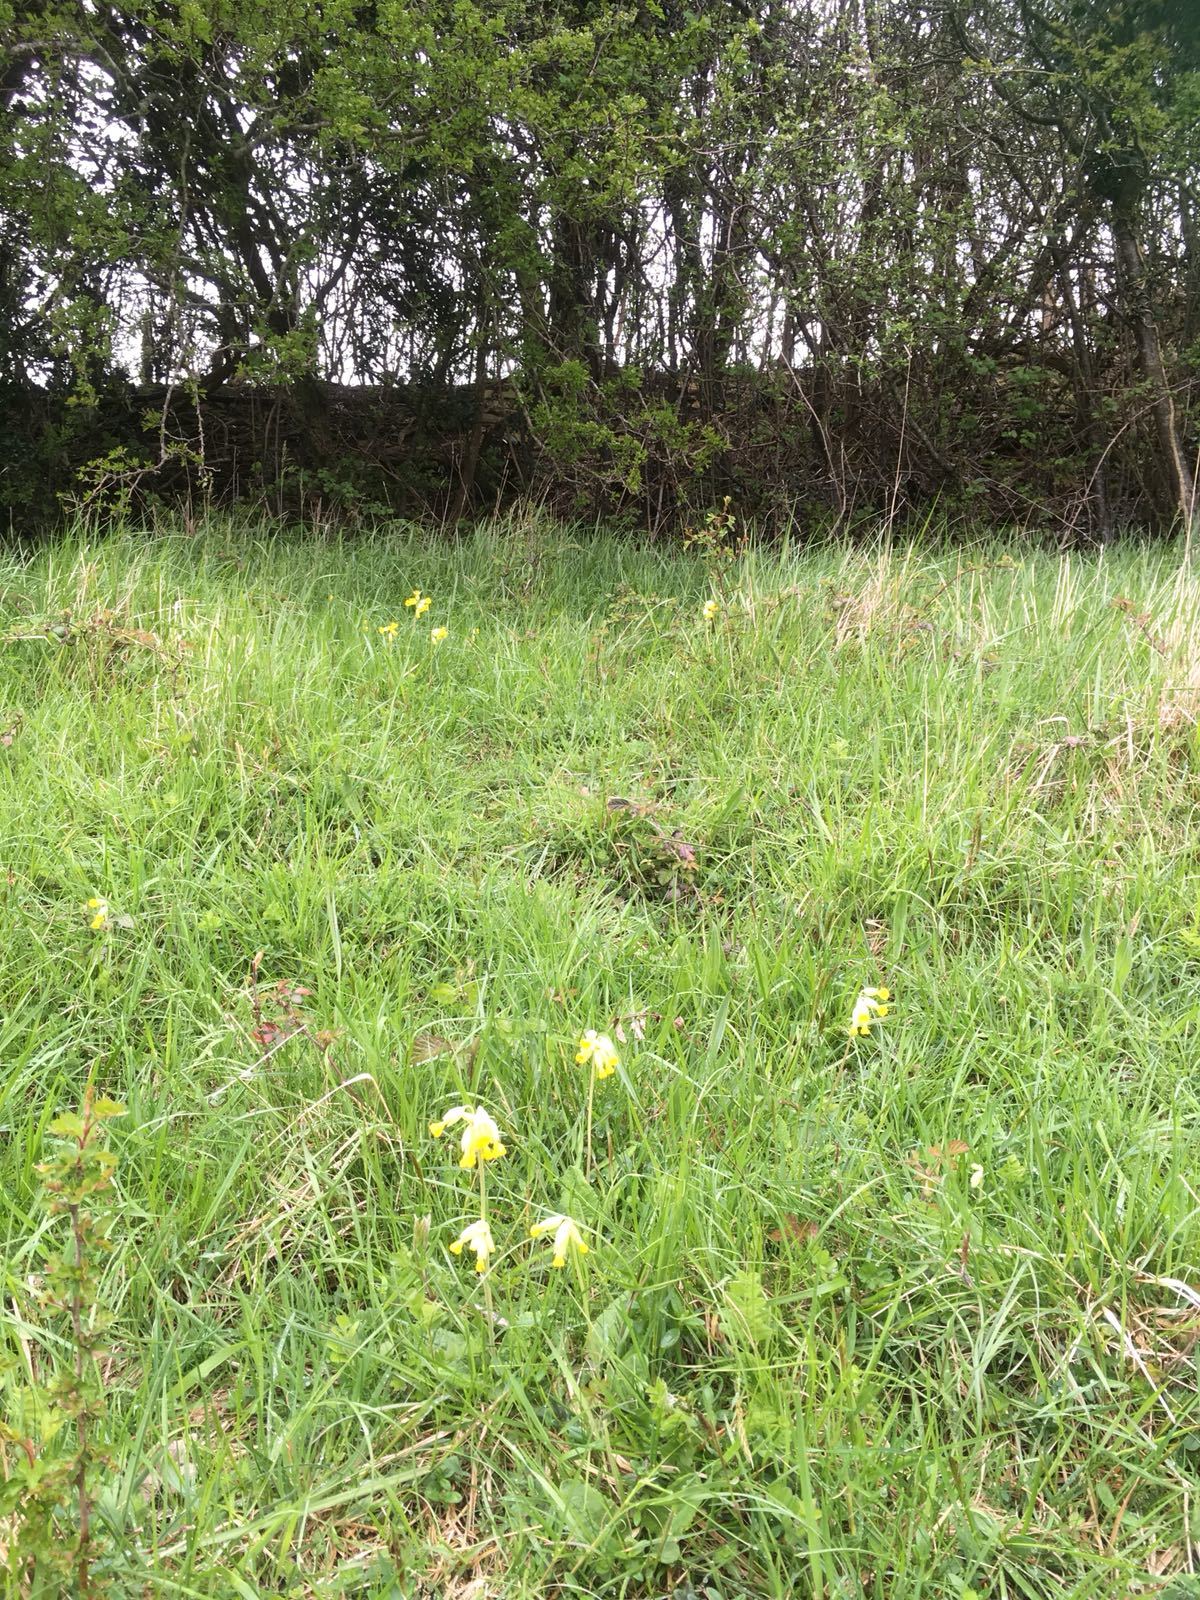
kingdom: Plantae
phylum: Tracheophyta
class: Magnoliopsida
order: Ericales
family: Primulaceae
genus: Primula
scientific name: Primula veris
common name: Cowslip
